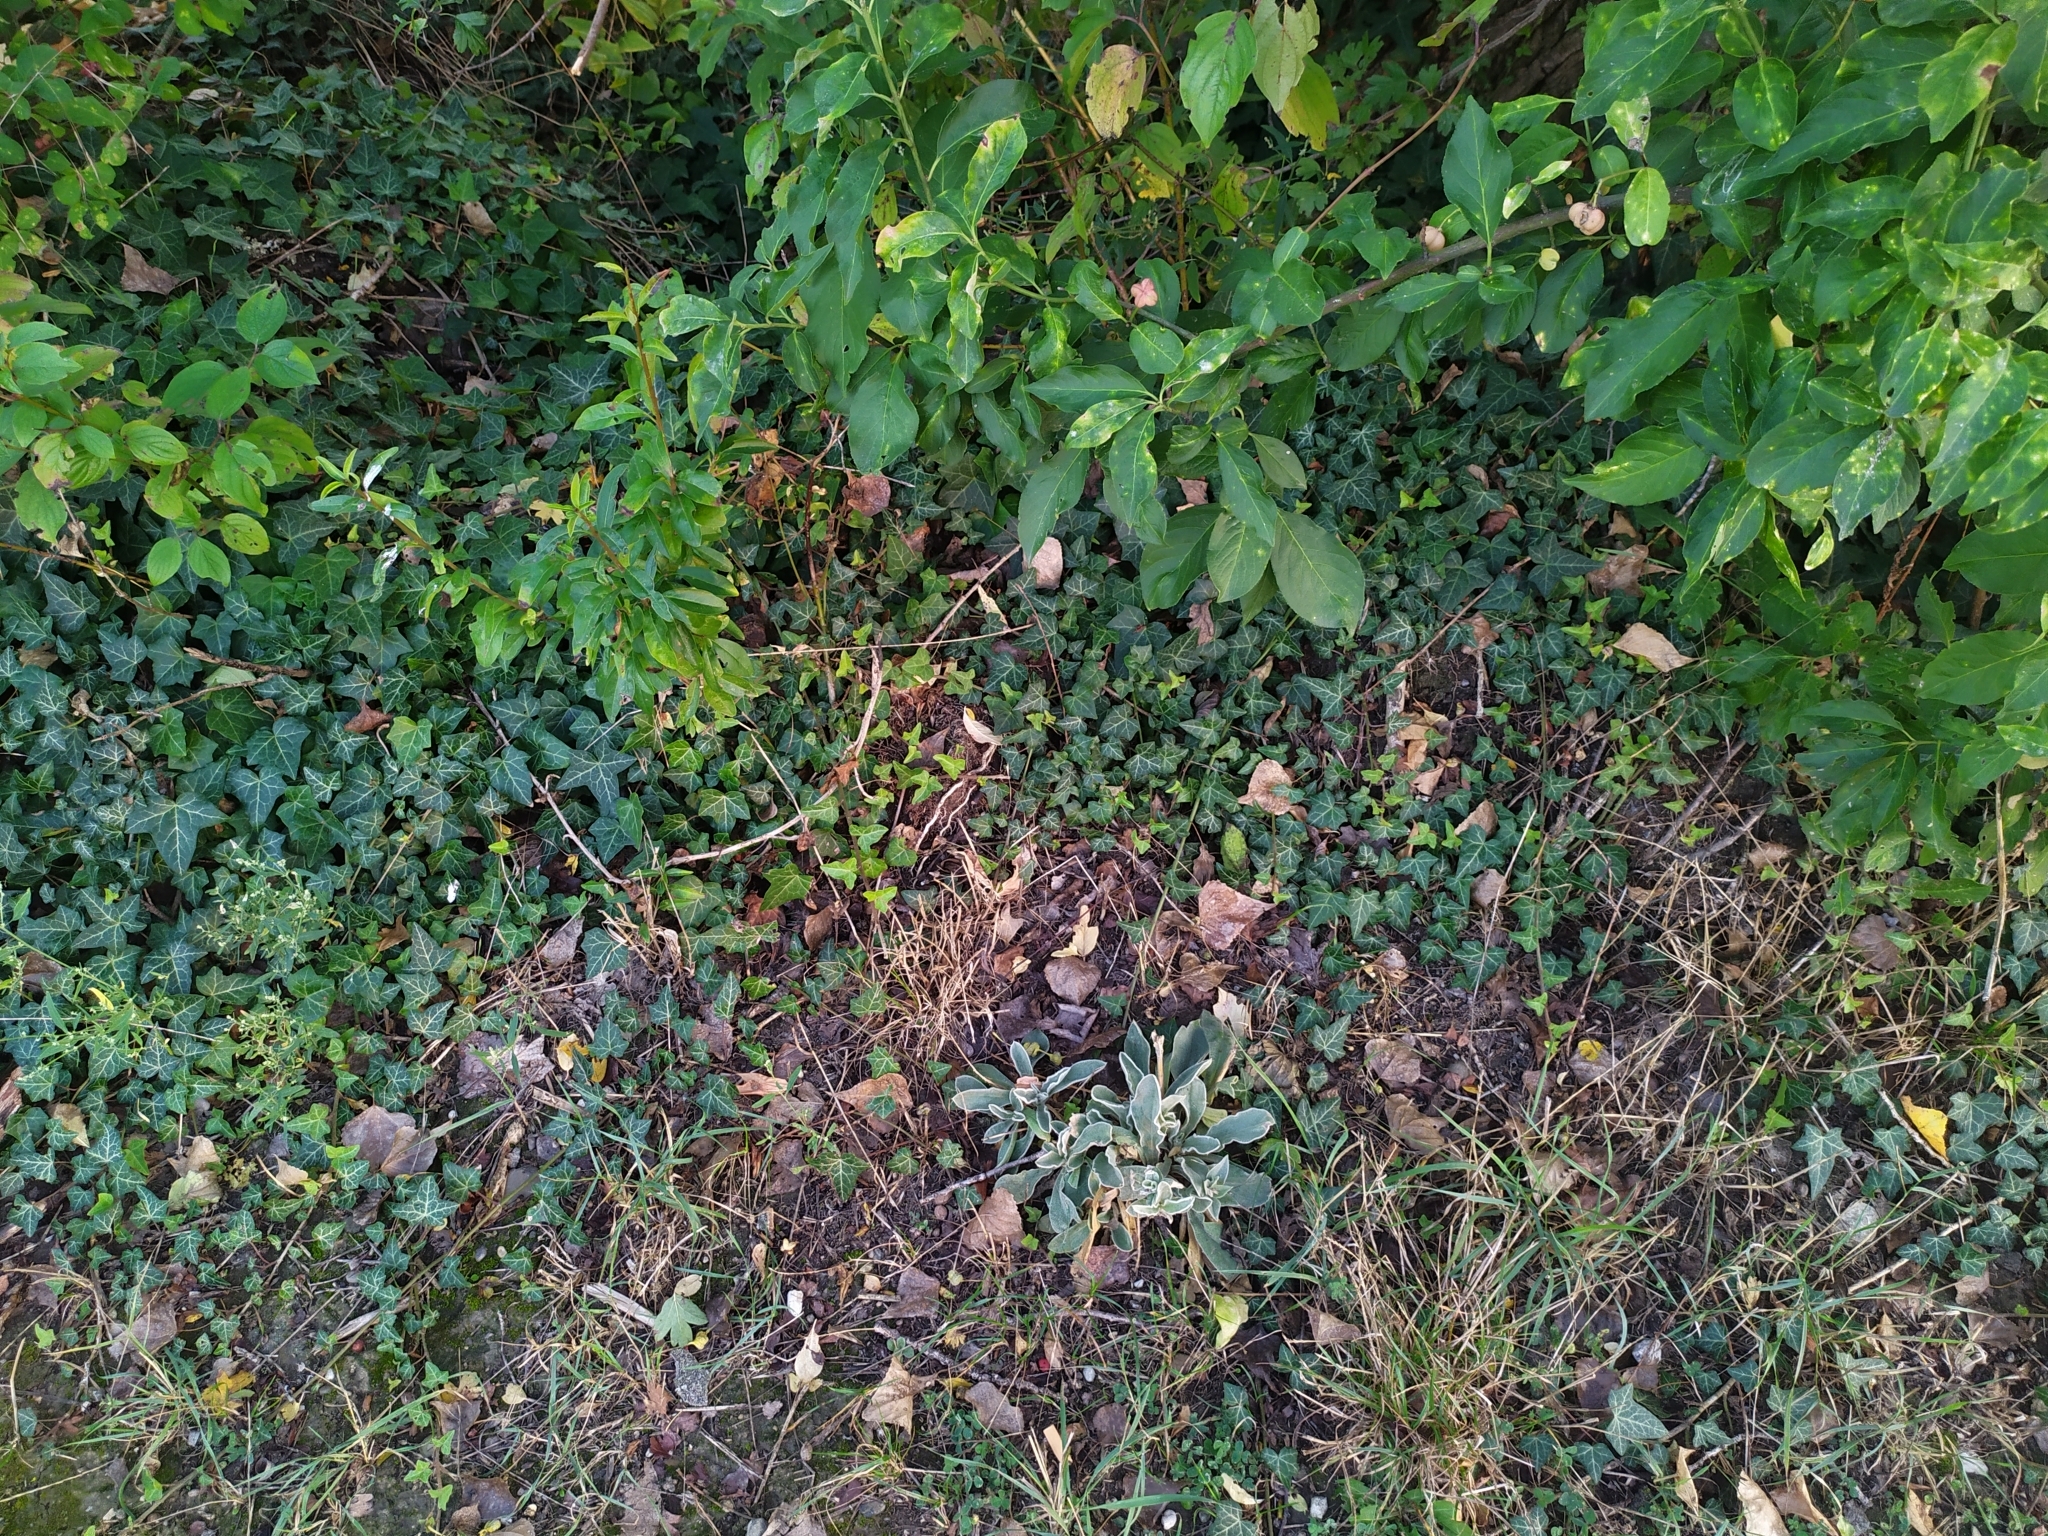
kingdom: Plantae
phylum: Tracheophyta
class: Magnoliopsida
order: Caryophyllales
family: Caryophyllaceae
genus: Silene
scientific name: Silene coronaria
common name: Rose campion
